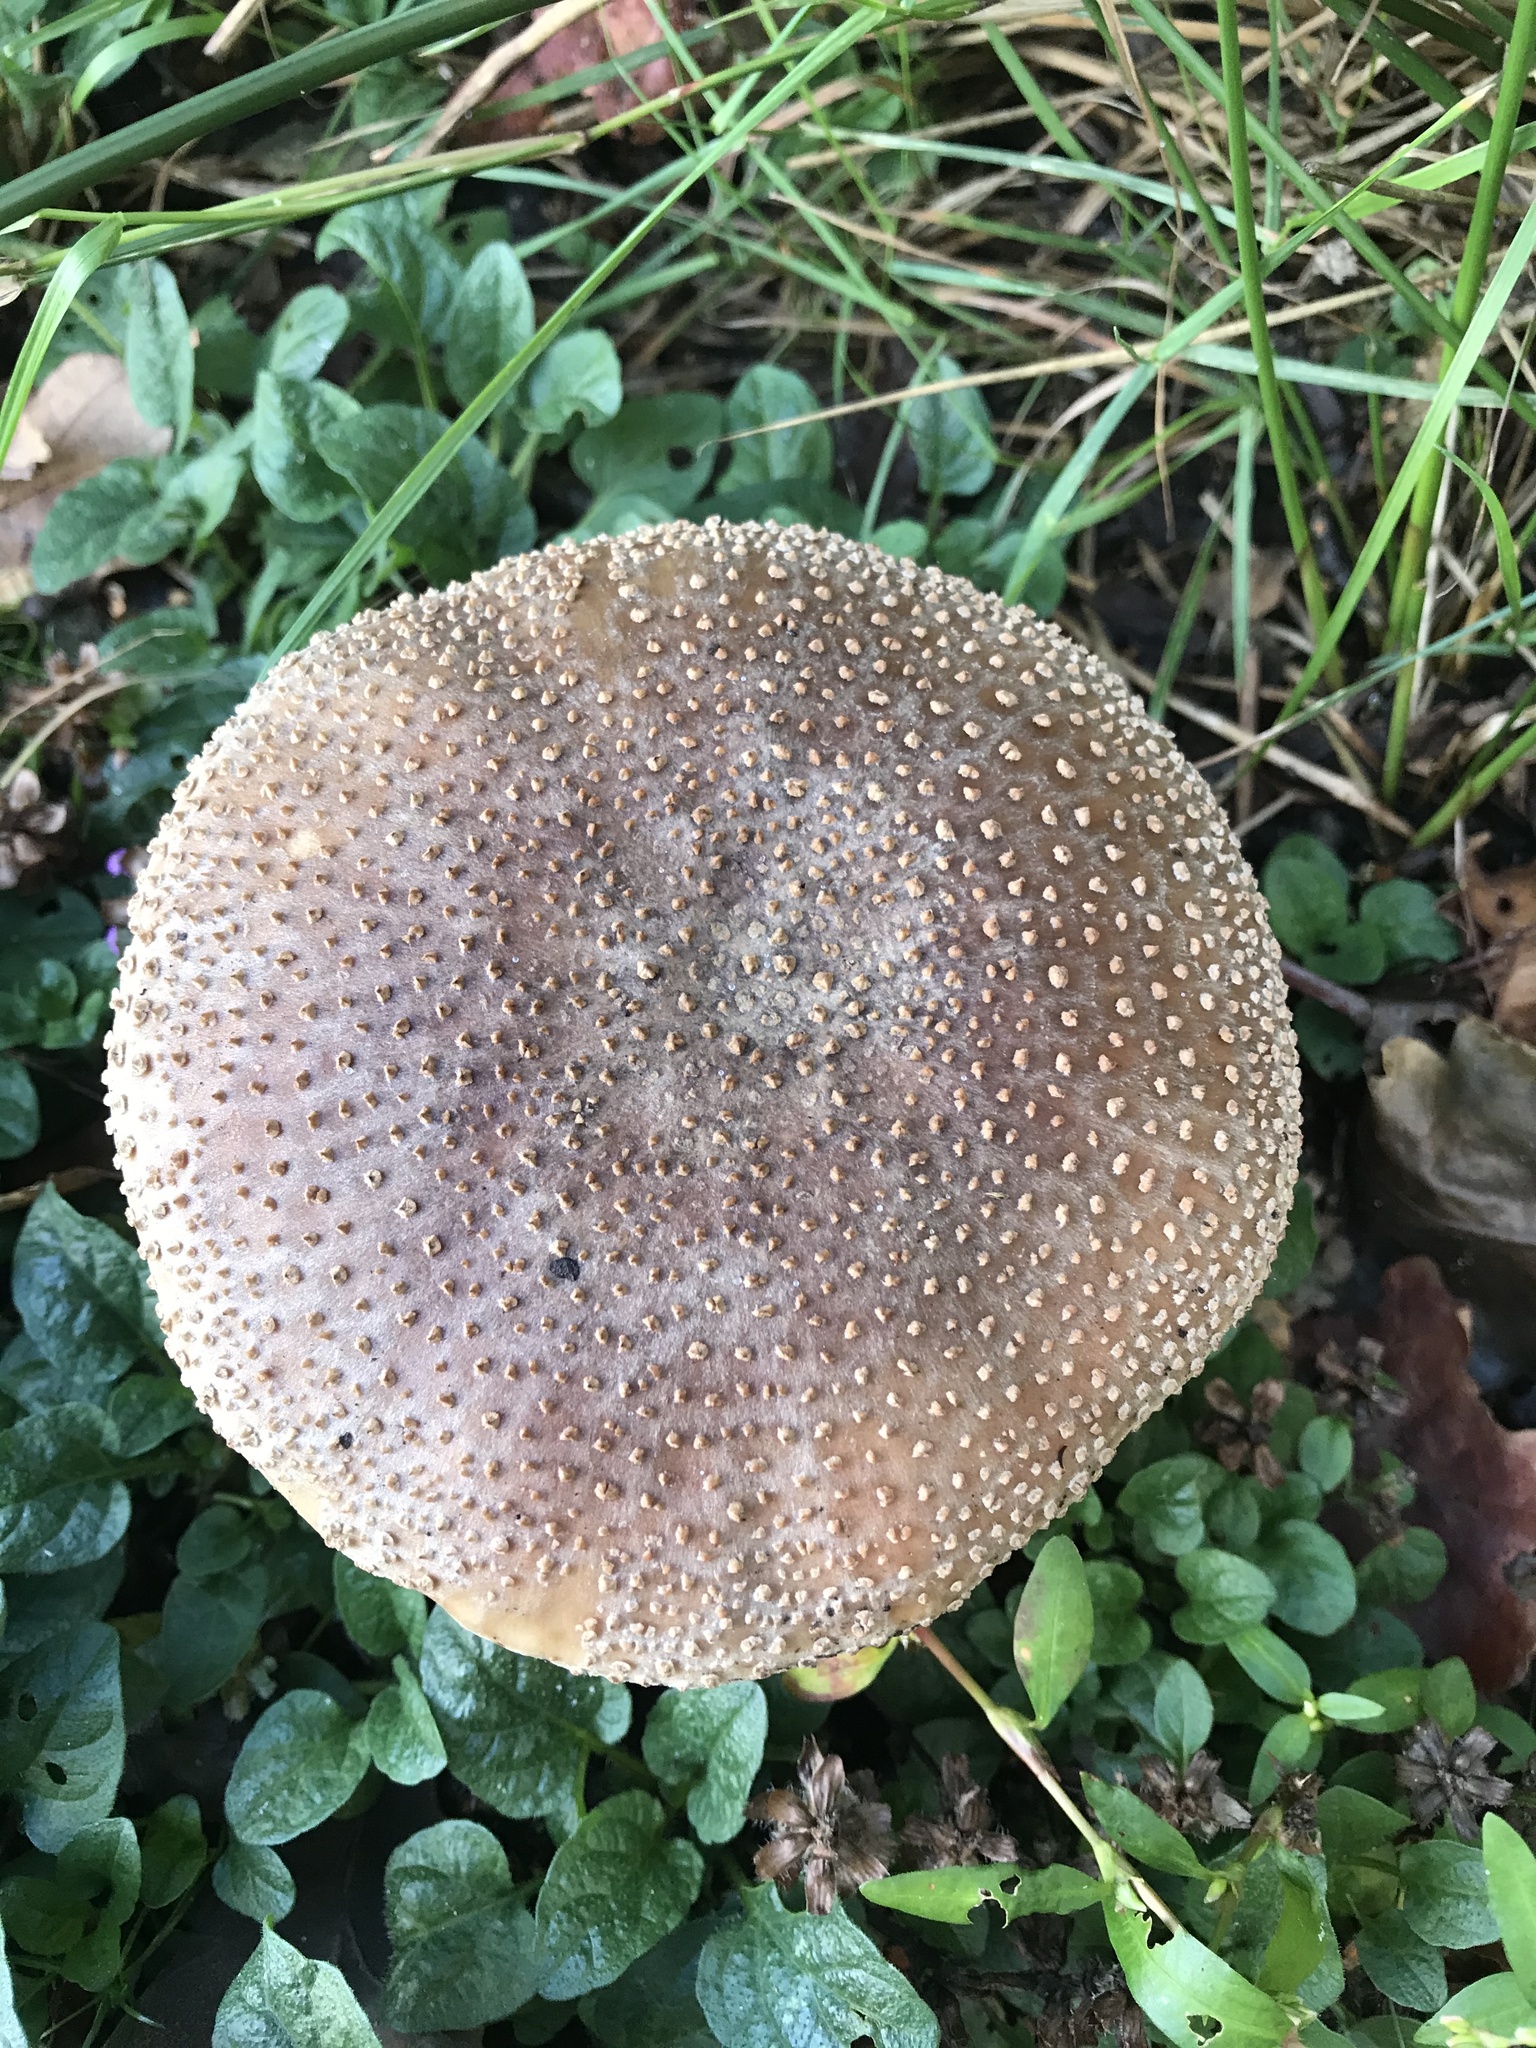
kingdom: Fungi
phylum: Basidiomycota
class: Agaricomycetes
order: Agaricales
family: Amanitaceae
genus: Amanita
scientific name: Amanita rubescens
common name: Blusher
